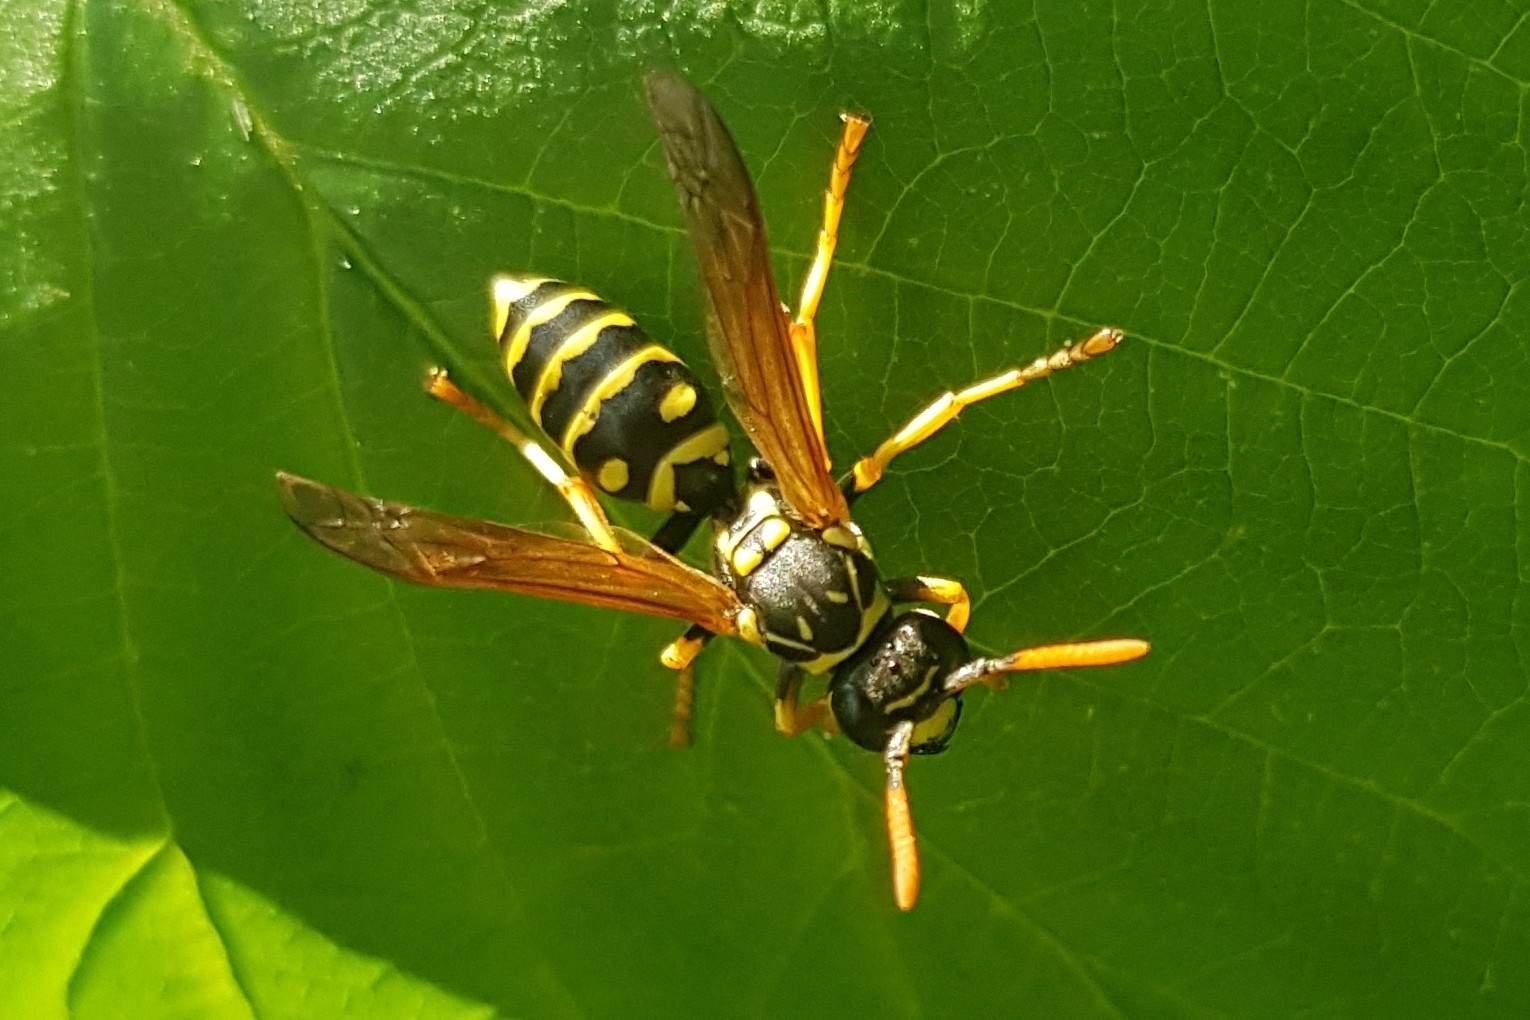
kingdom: Animalia
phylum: Arthropoda
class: Insecta
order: Hymenoptera
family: Eumenidae
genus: Polistes
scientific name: Polistes dominula
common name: Paper wasp
